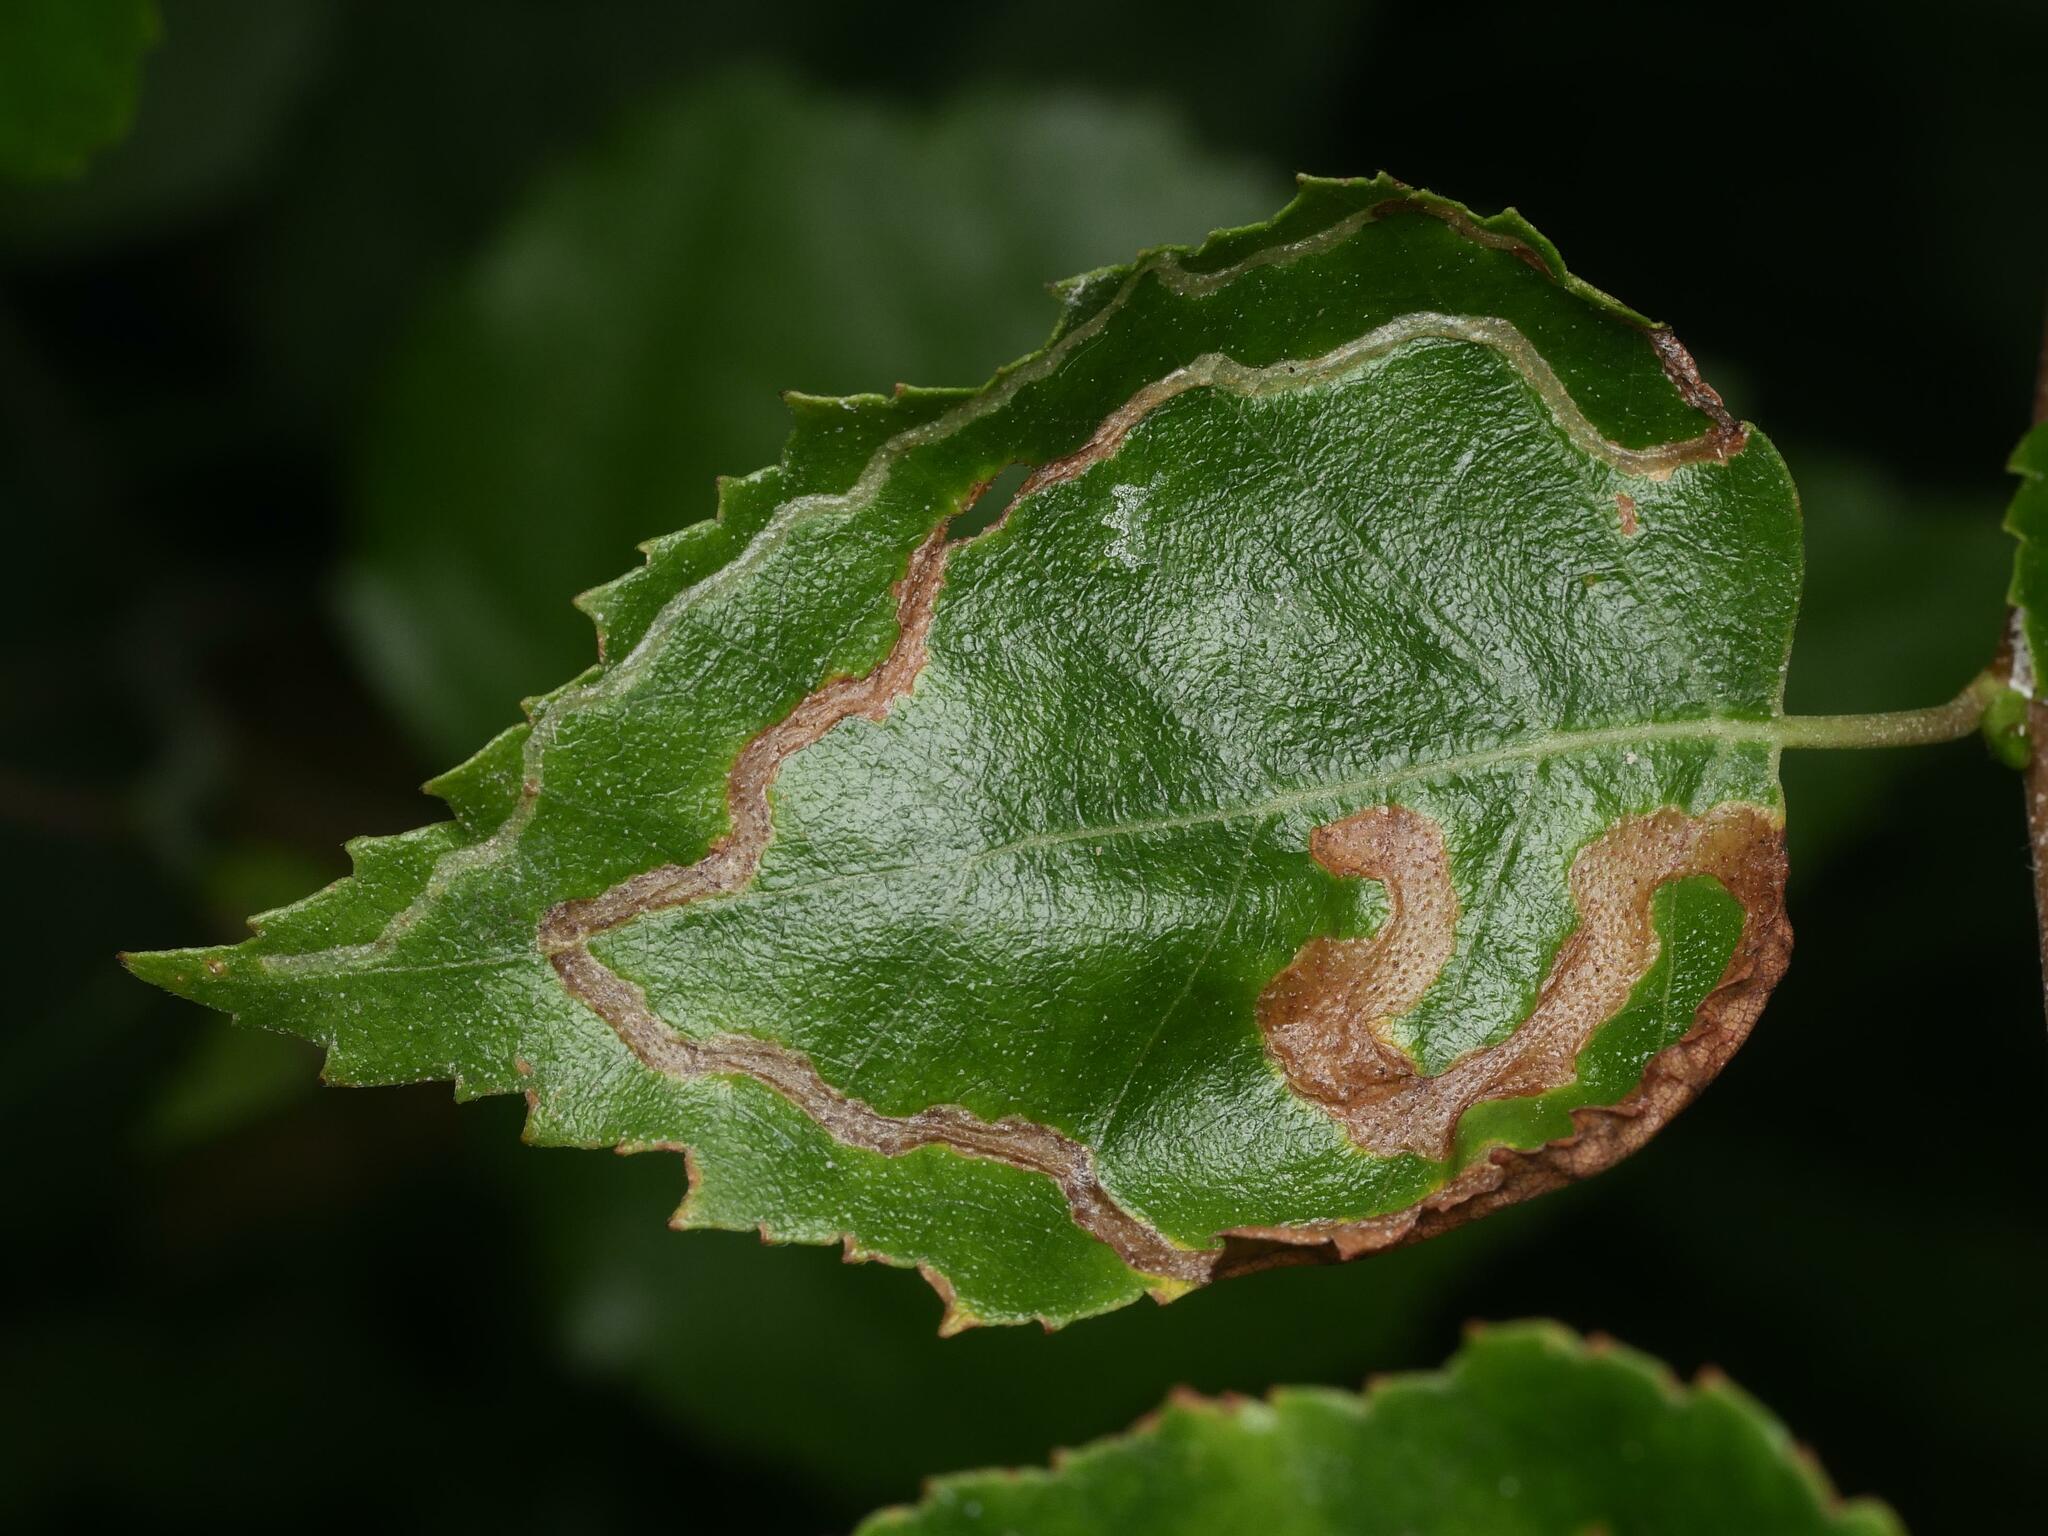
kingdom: Animalia
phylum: Arthropoda
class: Insecta
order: Diptera
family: Agromyzidae
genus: Agromyza
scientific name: Agromyza alnibetulae
